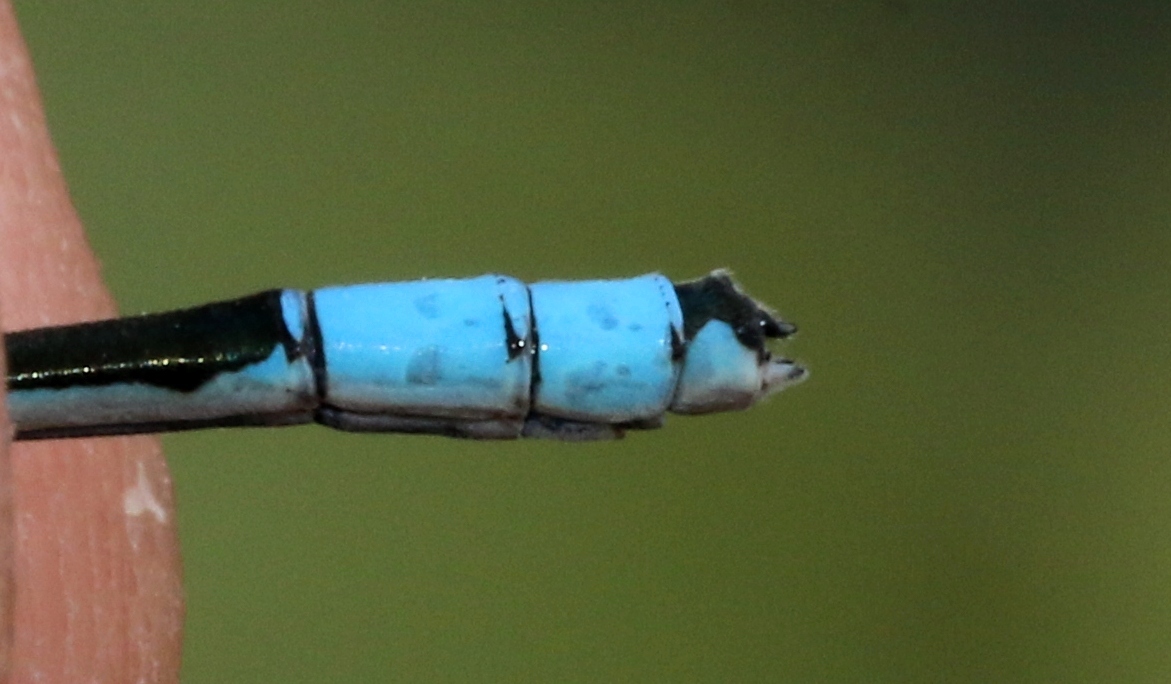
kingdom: Animalia
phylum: Arthropoda
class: Insecta
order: Odonata
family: Coenagrionidae
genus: Enallagma
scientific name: Enallagma hageni
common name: Hagen's bluet
